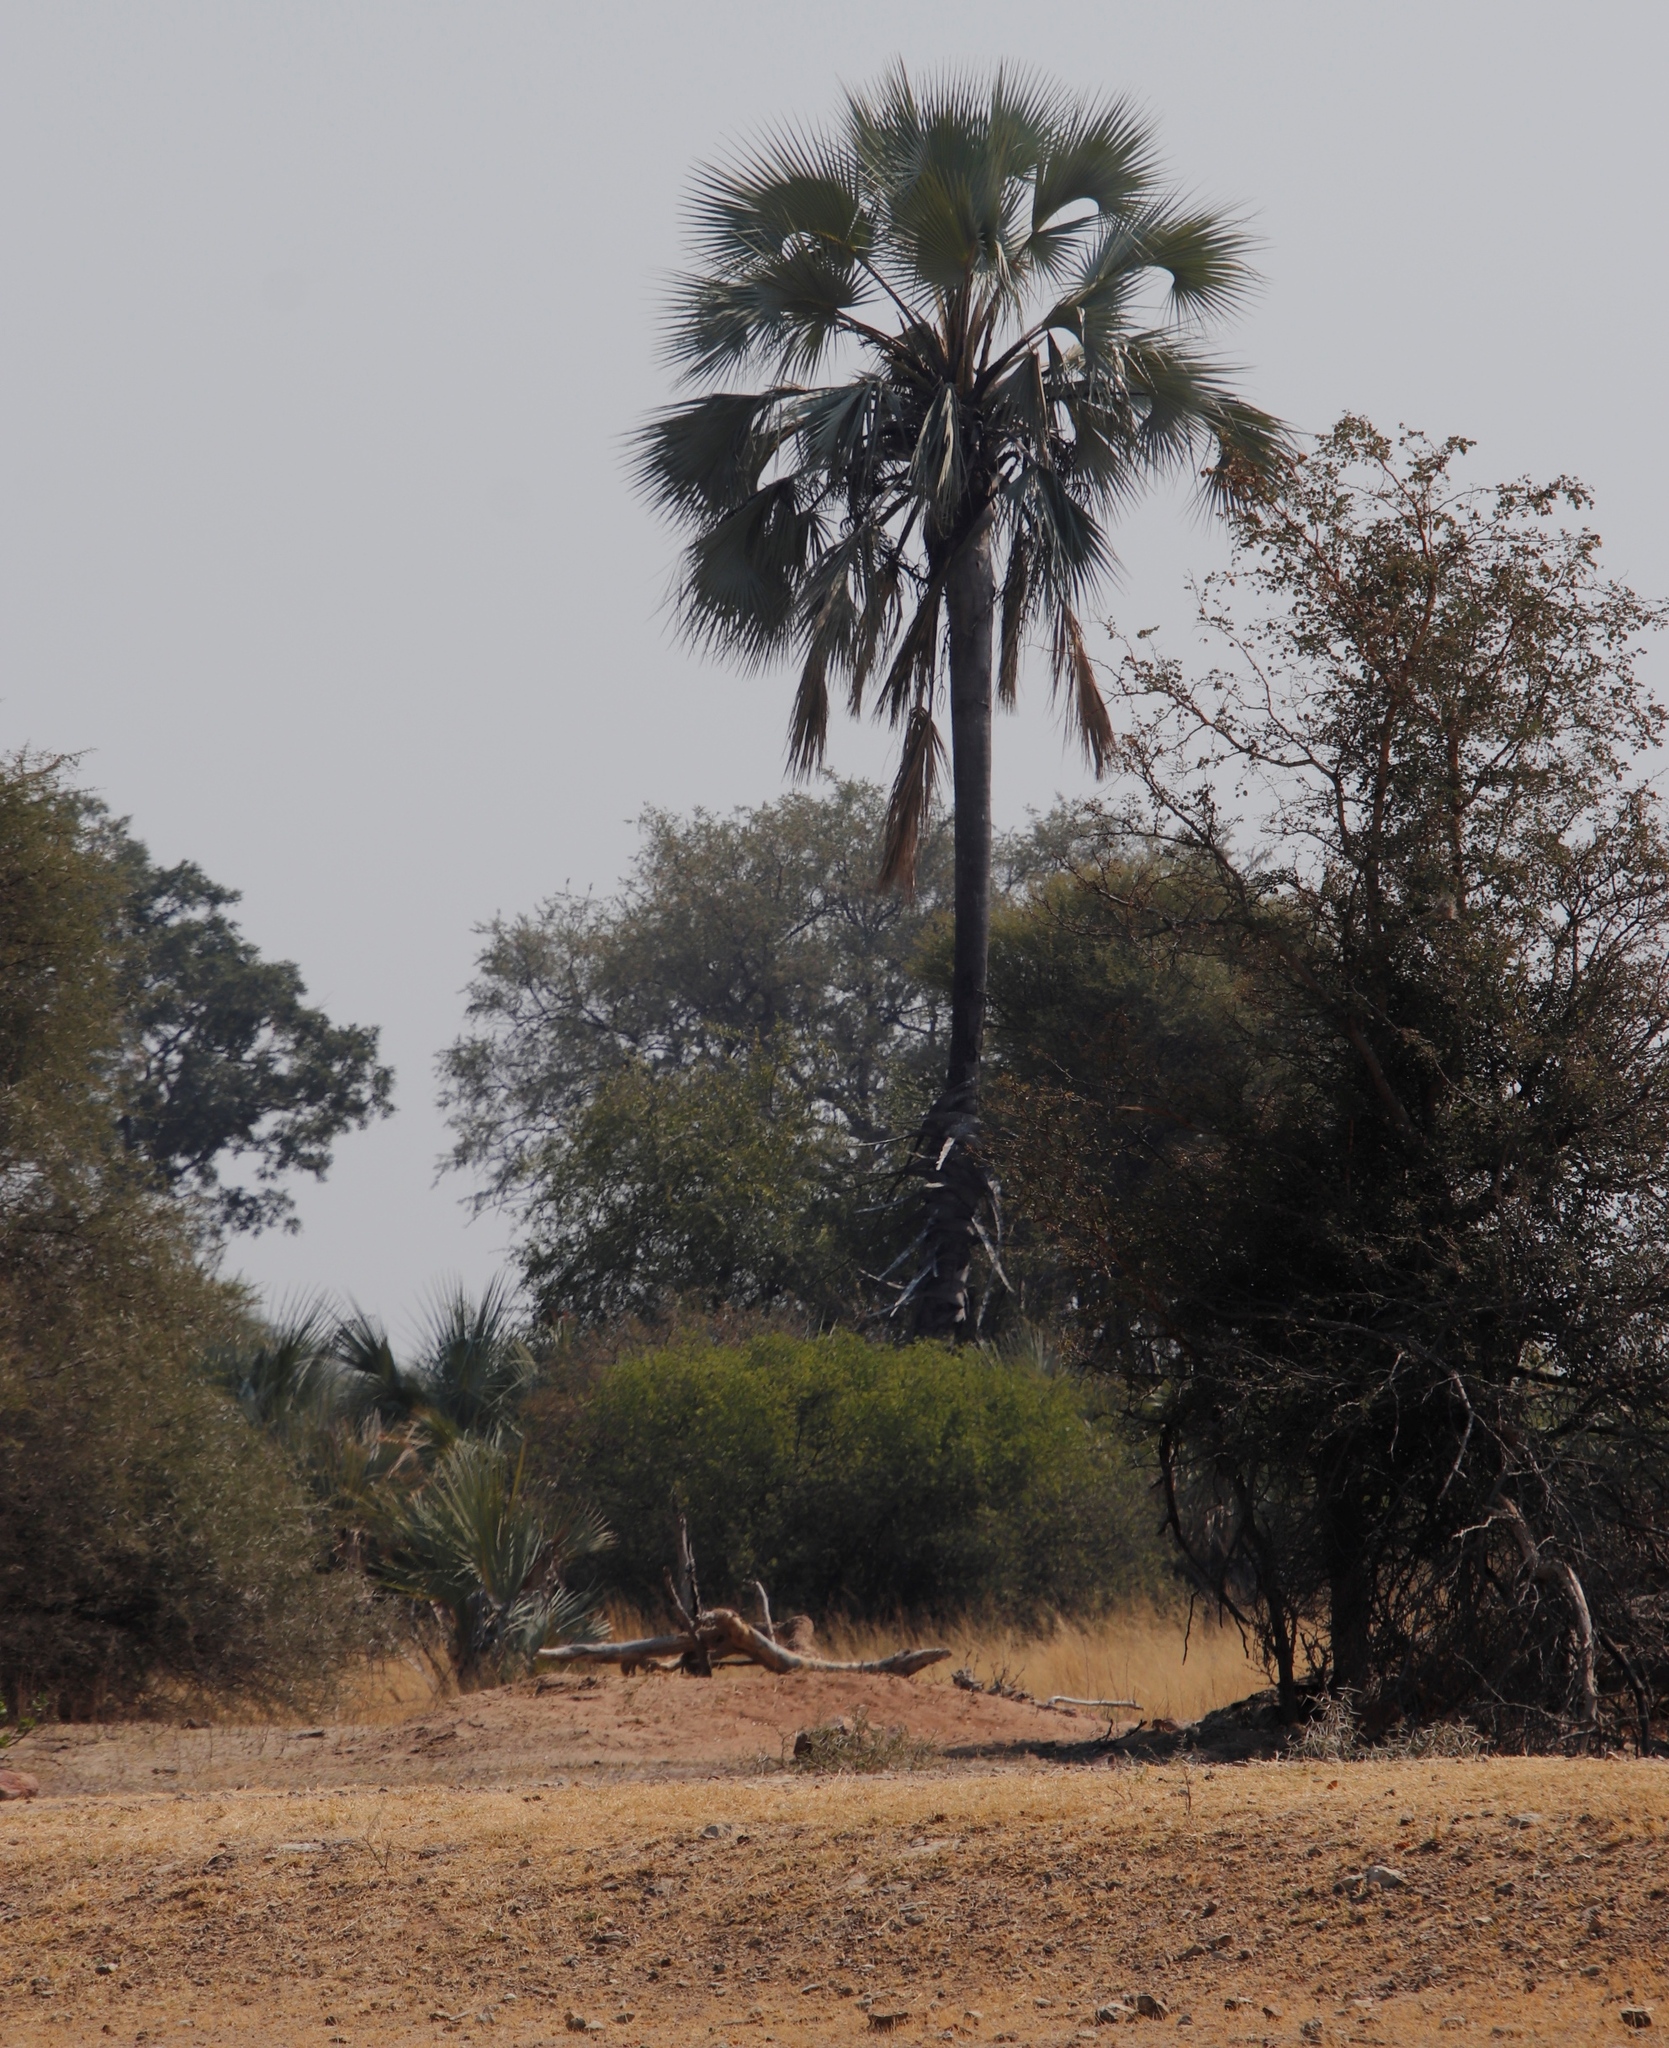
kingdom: Plantae
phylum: Tracheophyta
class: Liliopsida
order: Arecales
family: Arecaceae
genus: Hyphaene
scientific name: Hyphaene petersiana
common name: African ivory nut palm
